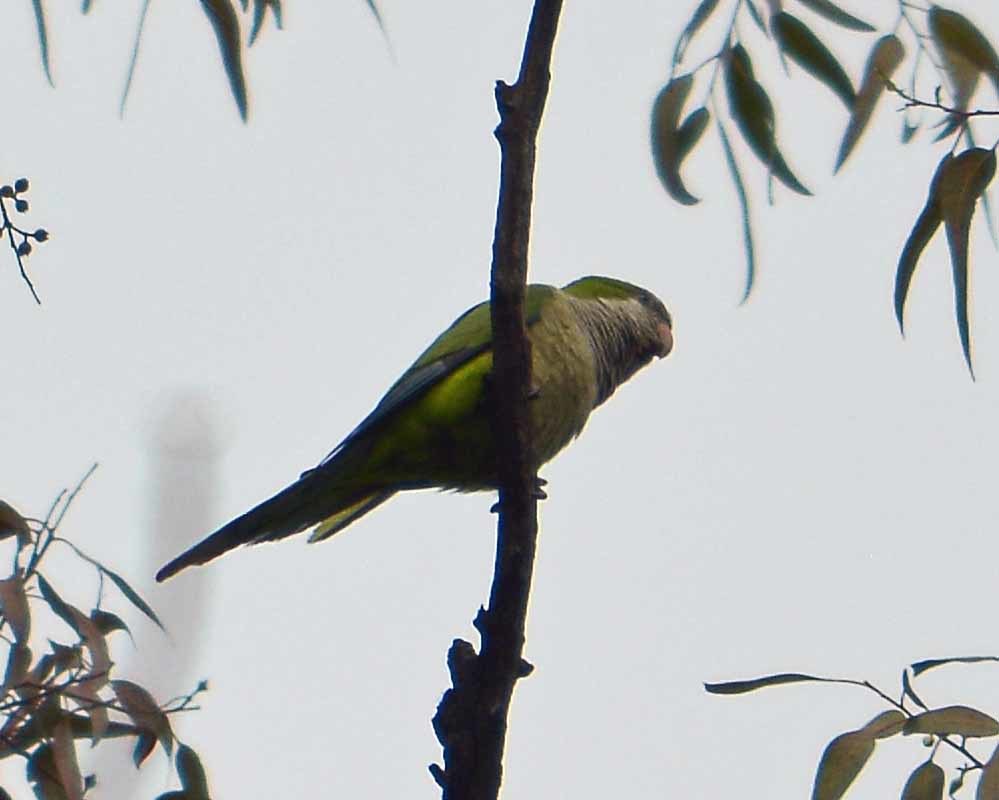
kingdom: Animalia
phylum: Chordata
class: Aves
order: Psittaciformes
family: Psittacidae
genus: Myiopsitta
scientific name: Myiopsitta monachus
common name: Monk parakeet
